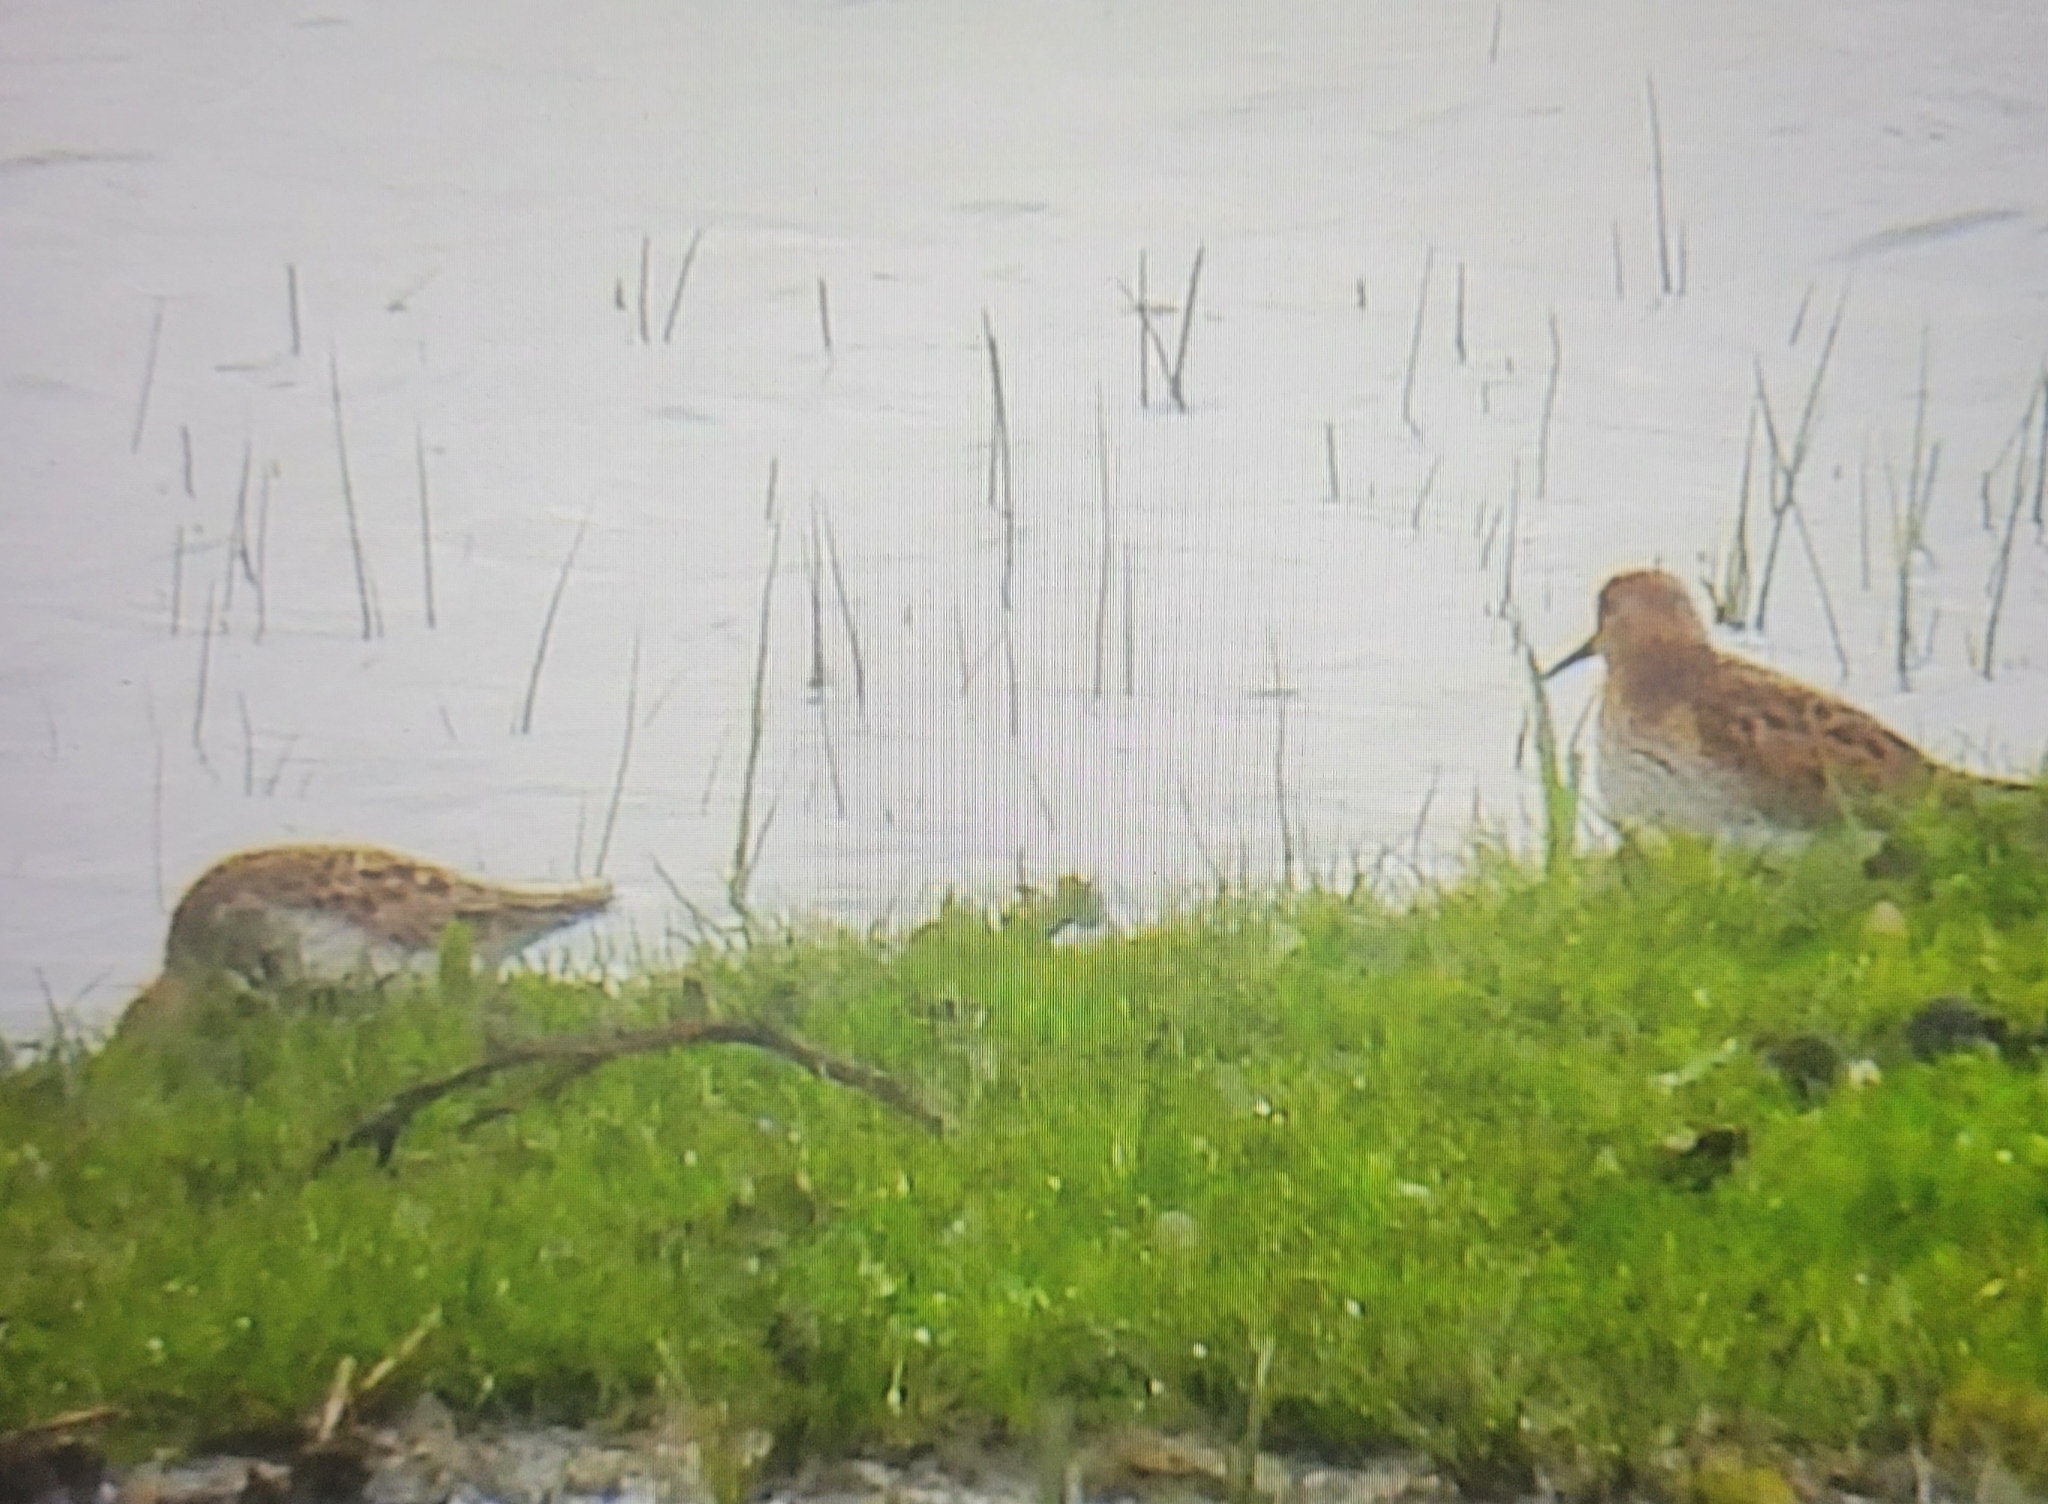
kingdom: Animalia
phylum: Chordata
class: Aves
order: Charadriiformes
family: Scolopacidae
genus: Calidris
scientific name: Calidris pugnax
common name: Ruff
